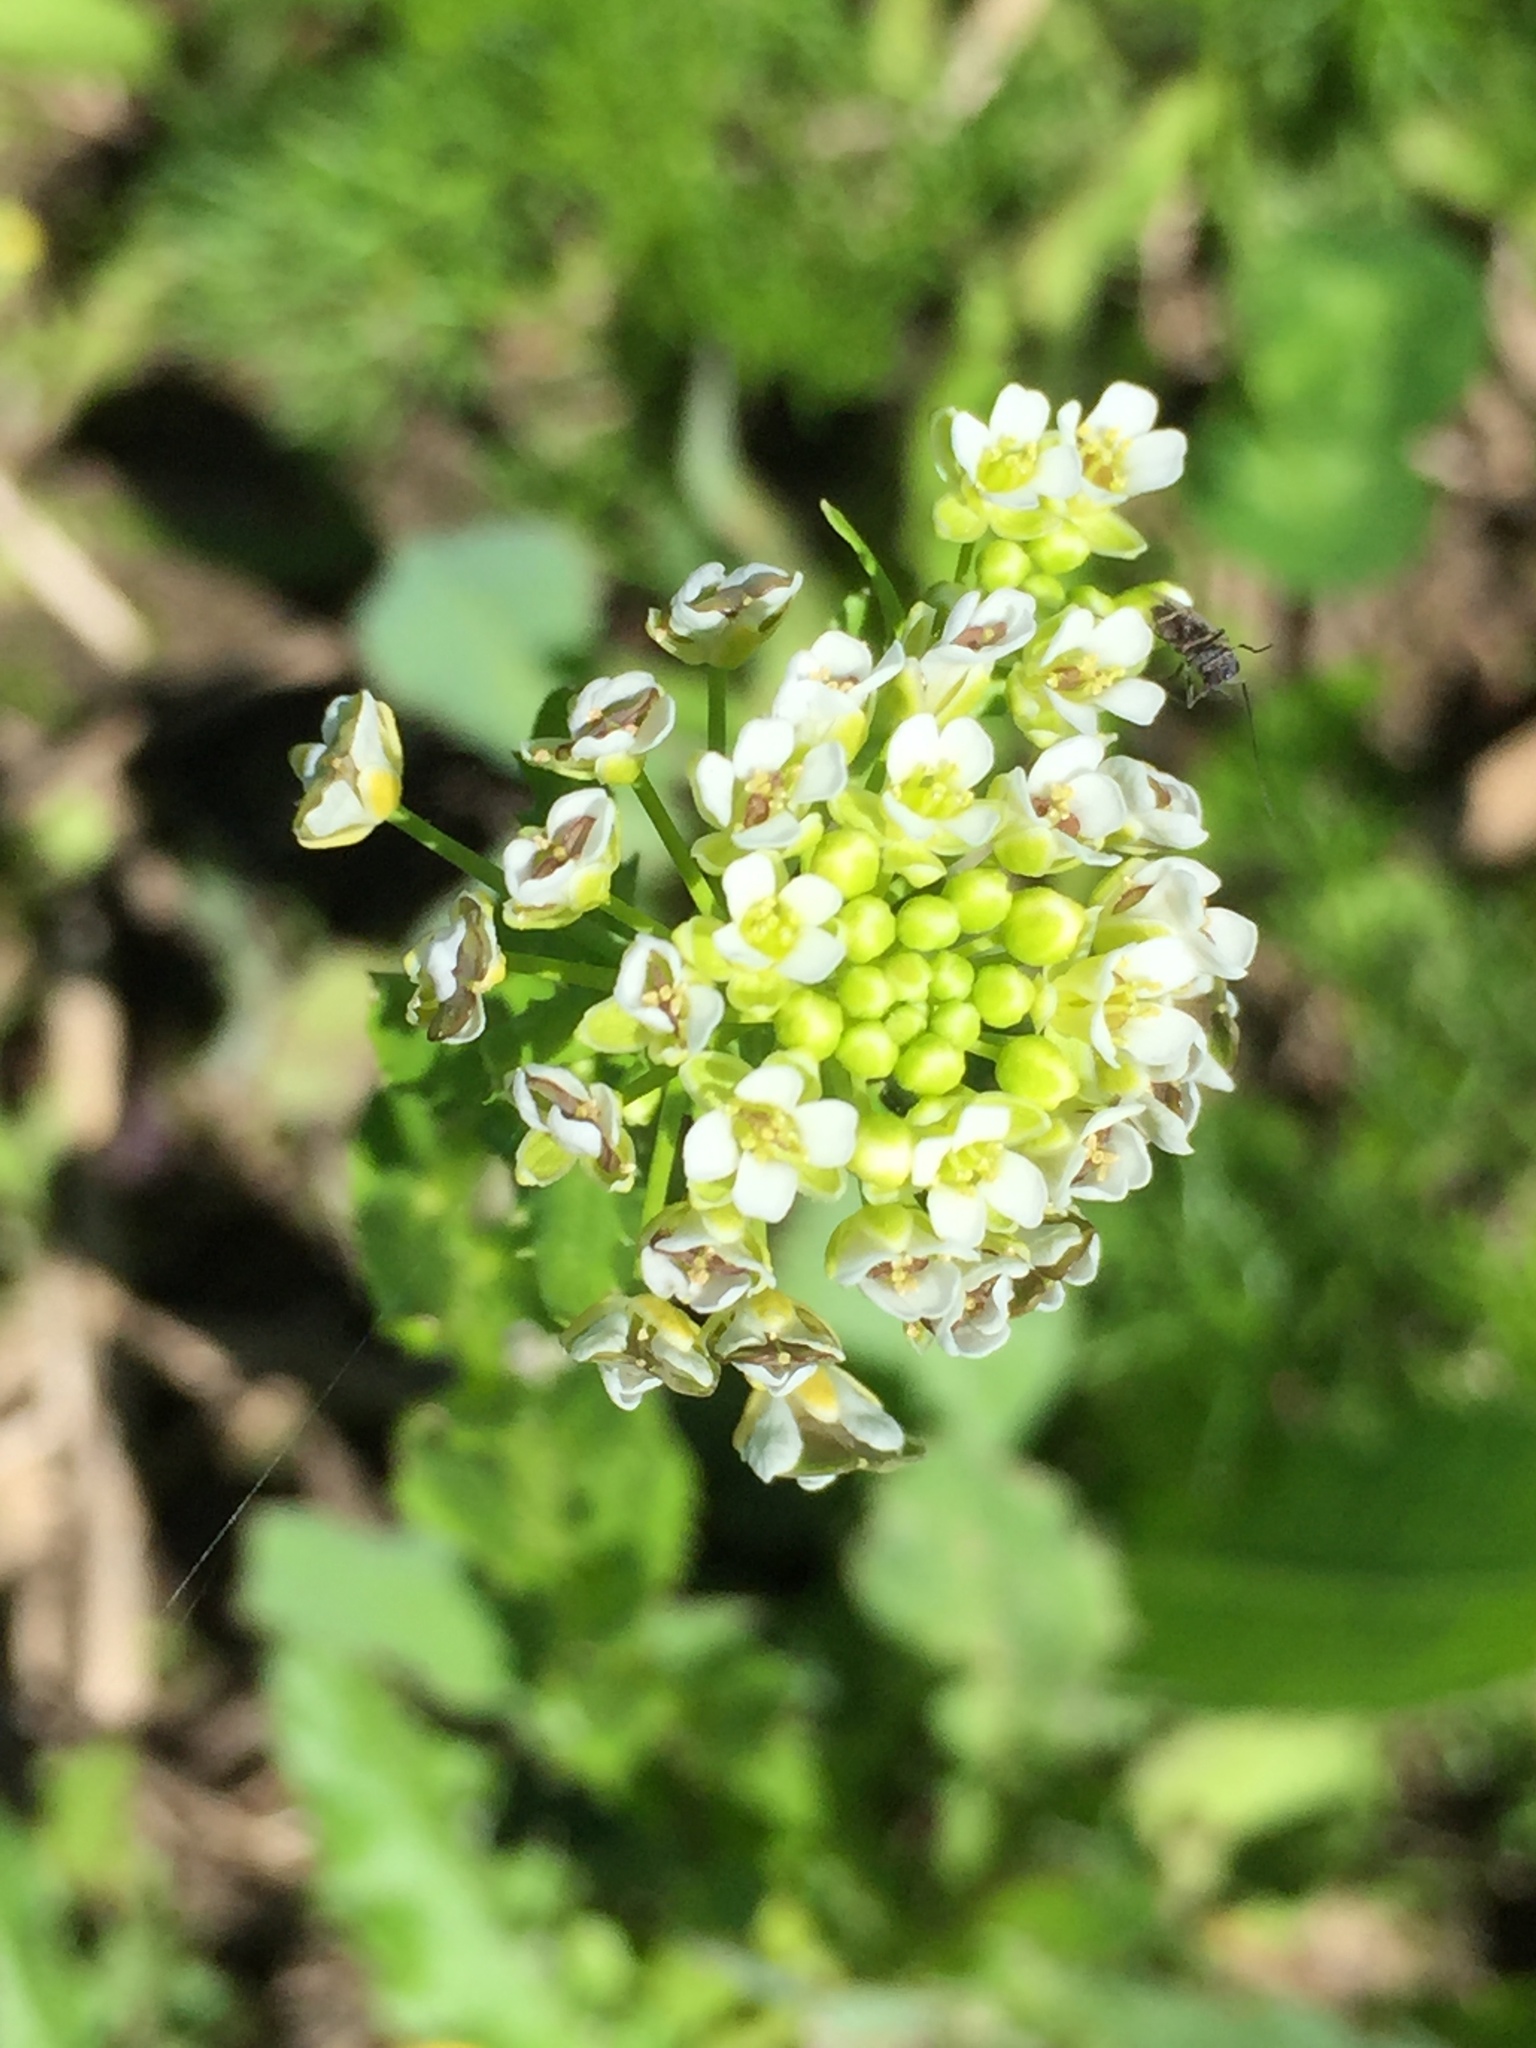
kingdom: Plantae
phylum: Tracheophyta
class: Magnoliopsida
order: Brassicales
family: Brassicaceae
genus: Thlaspi
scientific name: Thlaspi arvense
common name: Field pennycress
